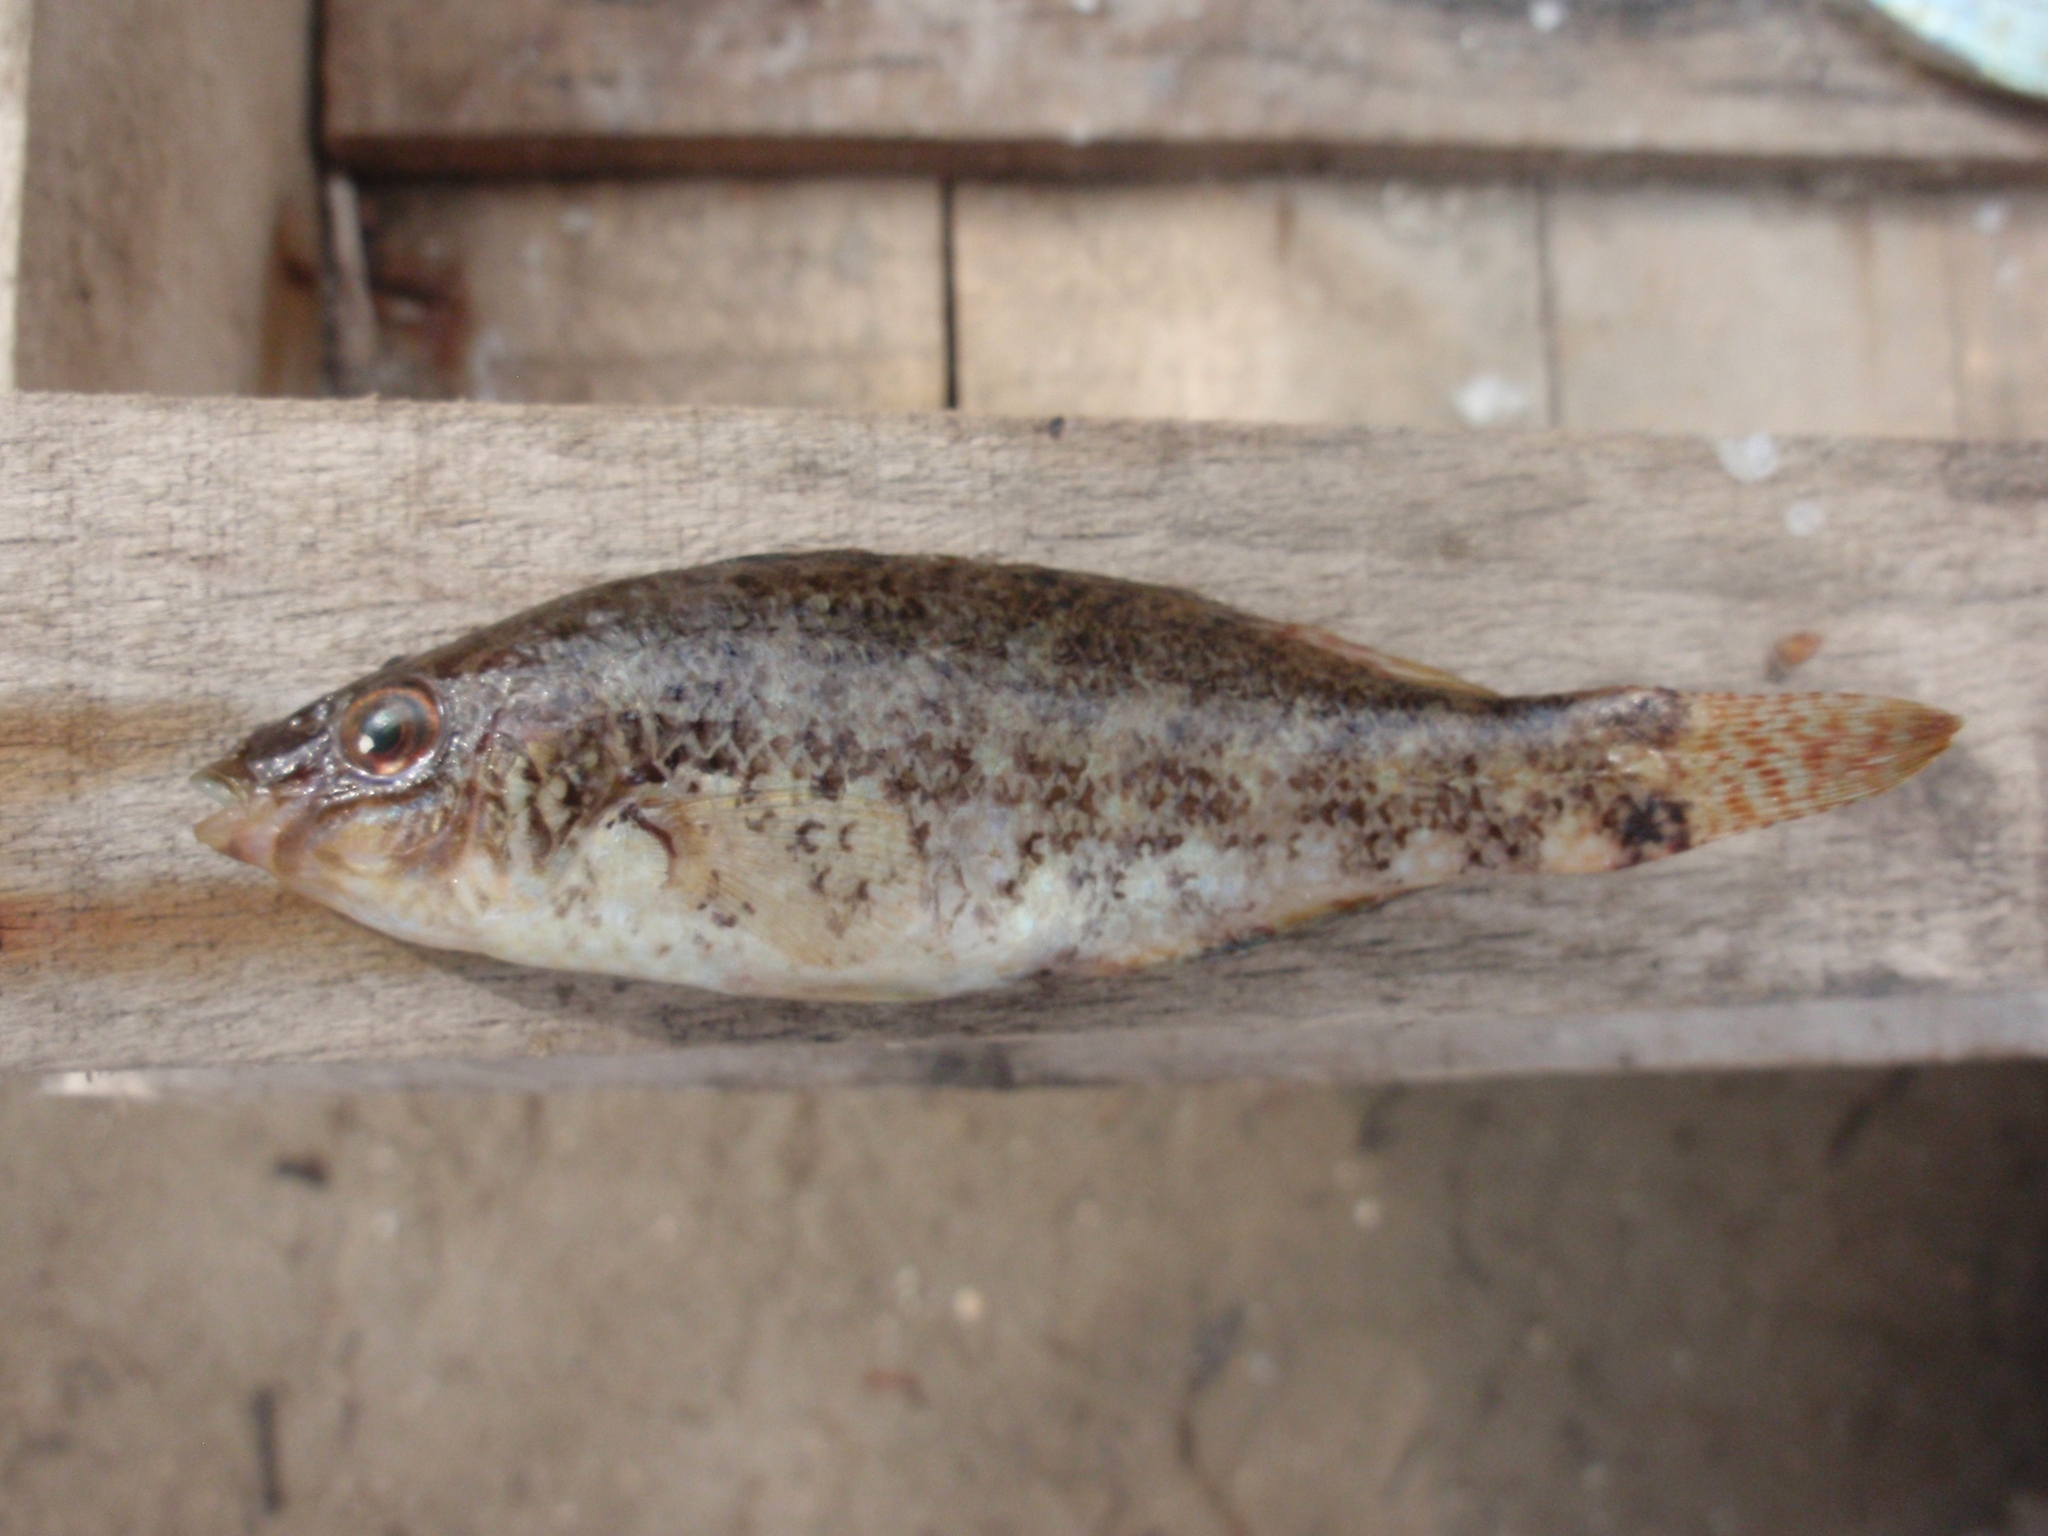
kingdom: Animalia
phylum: Chordata
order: Perciformes
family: Labridae
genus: Symphodus
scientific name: Symphodus cinereus
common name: Grey wrasse
